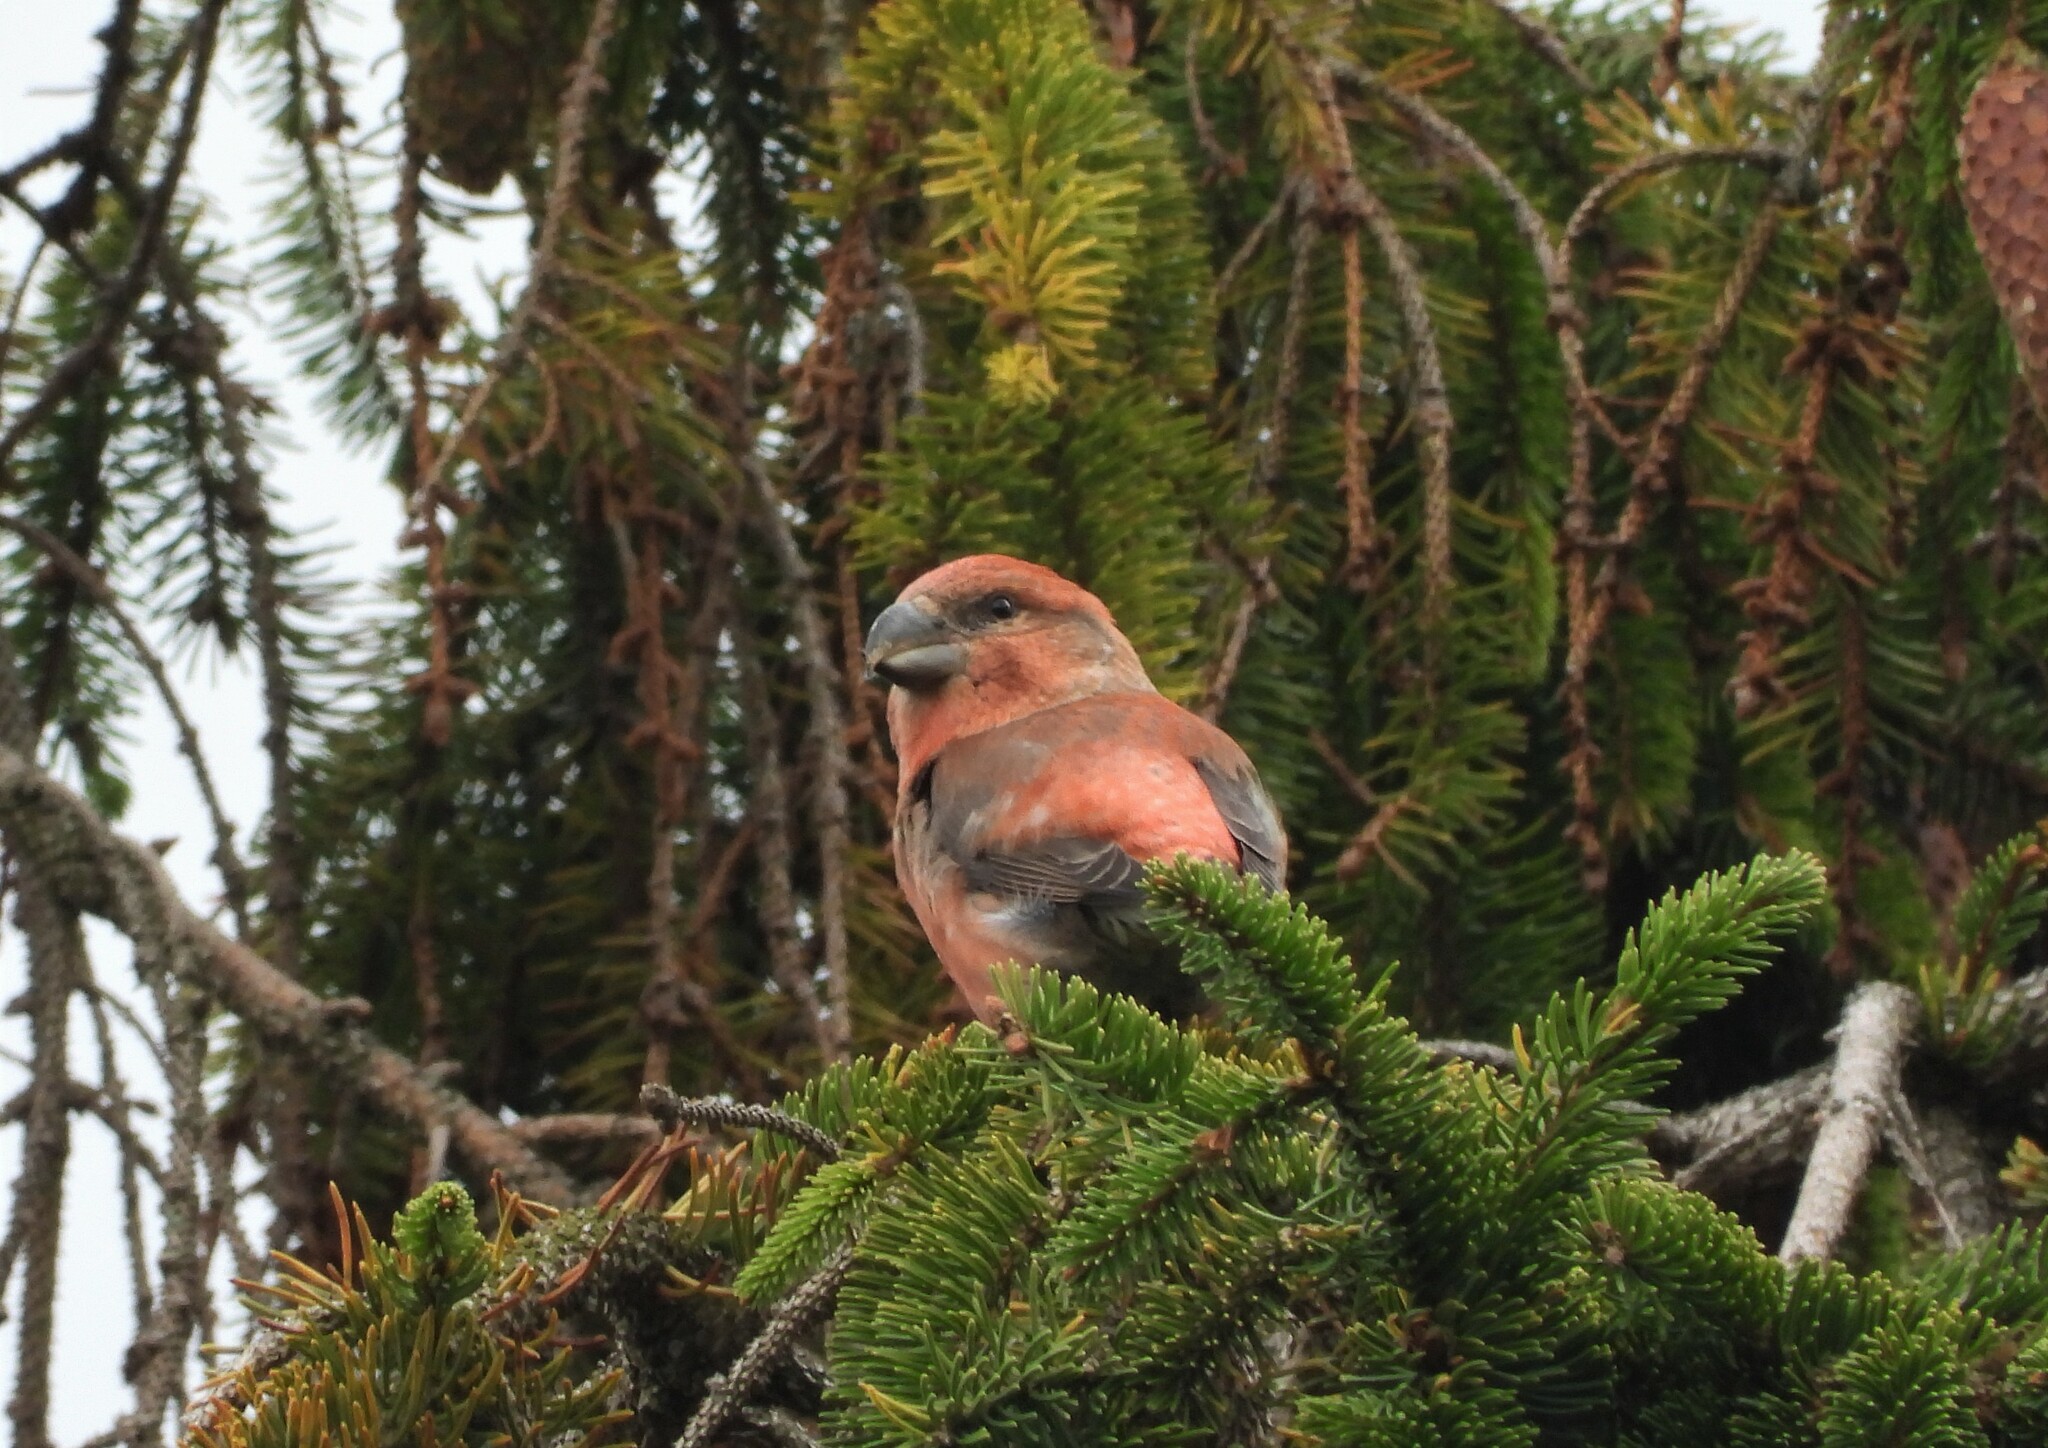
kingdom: Animalia
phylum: Chordata
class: Aves
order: Passeriformes
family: Fringillidae
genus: Loxia
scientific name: Loxia pytyopsittacus
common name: Parrot crossbill
